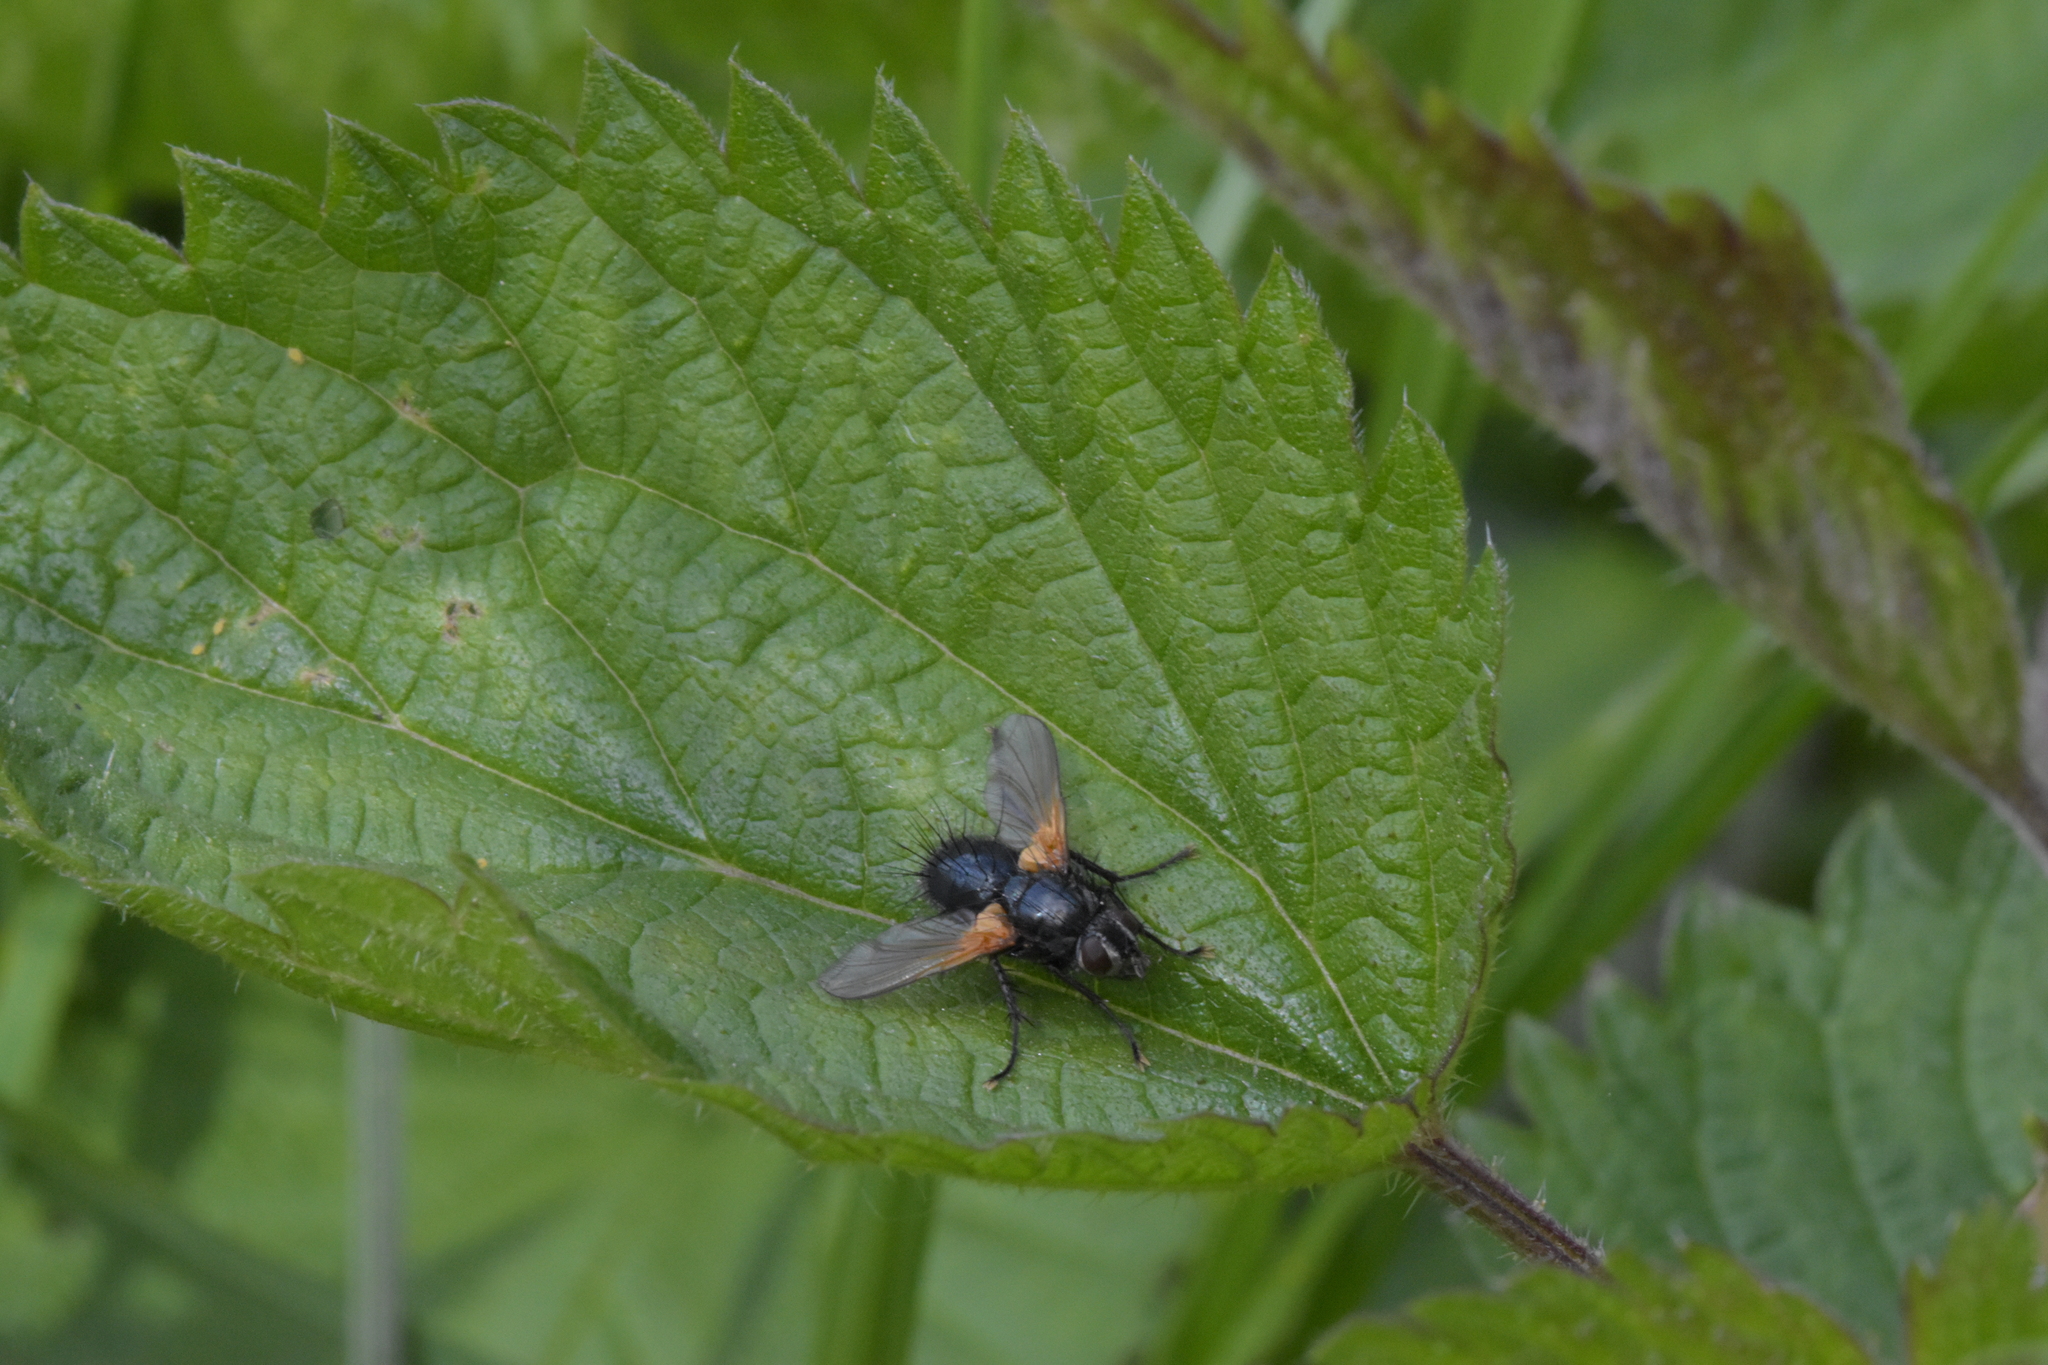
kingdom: Animalia
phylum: Arthropoda
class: Insecta
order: Diptera
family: Tachinidae
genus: Zophomyia
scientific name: Zophomyia temula
